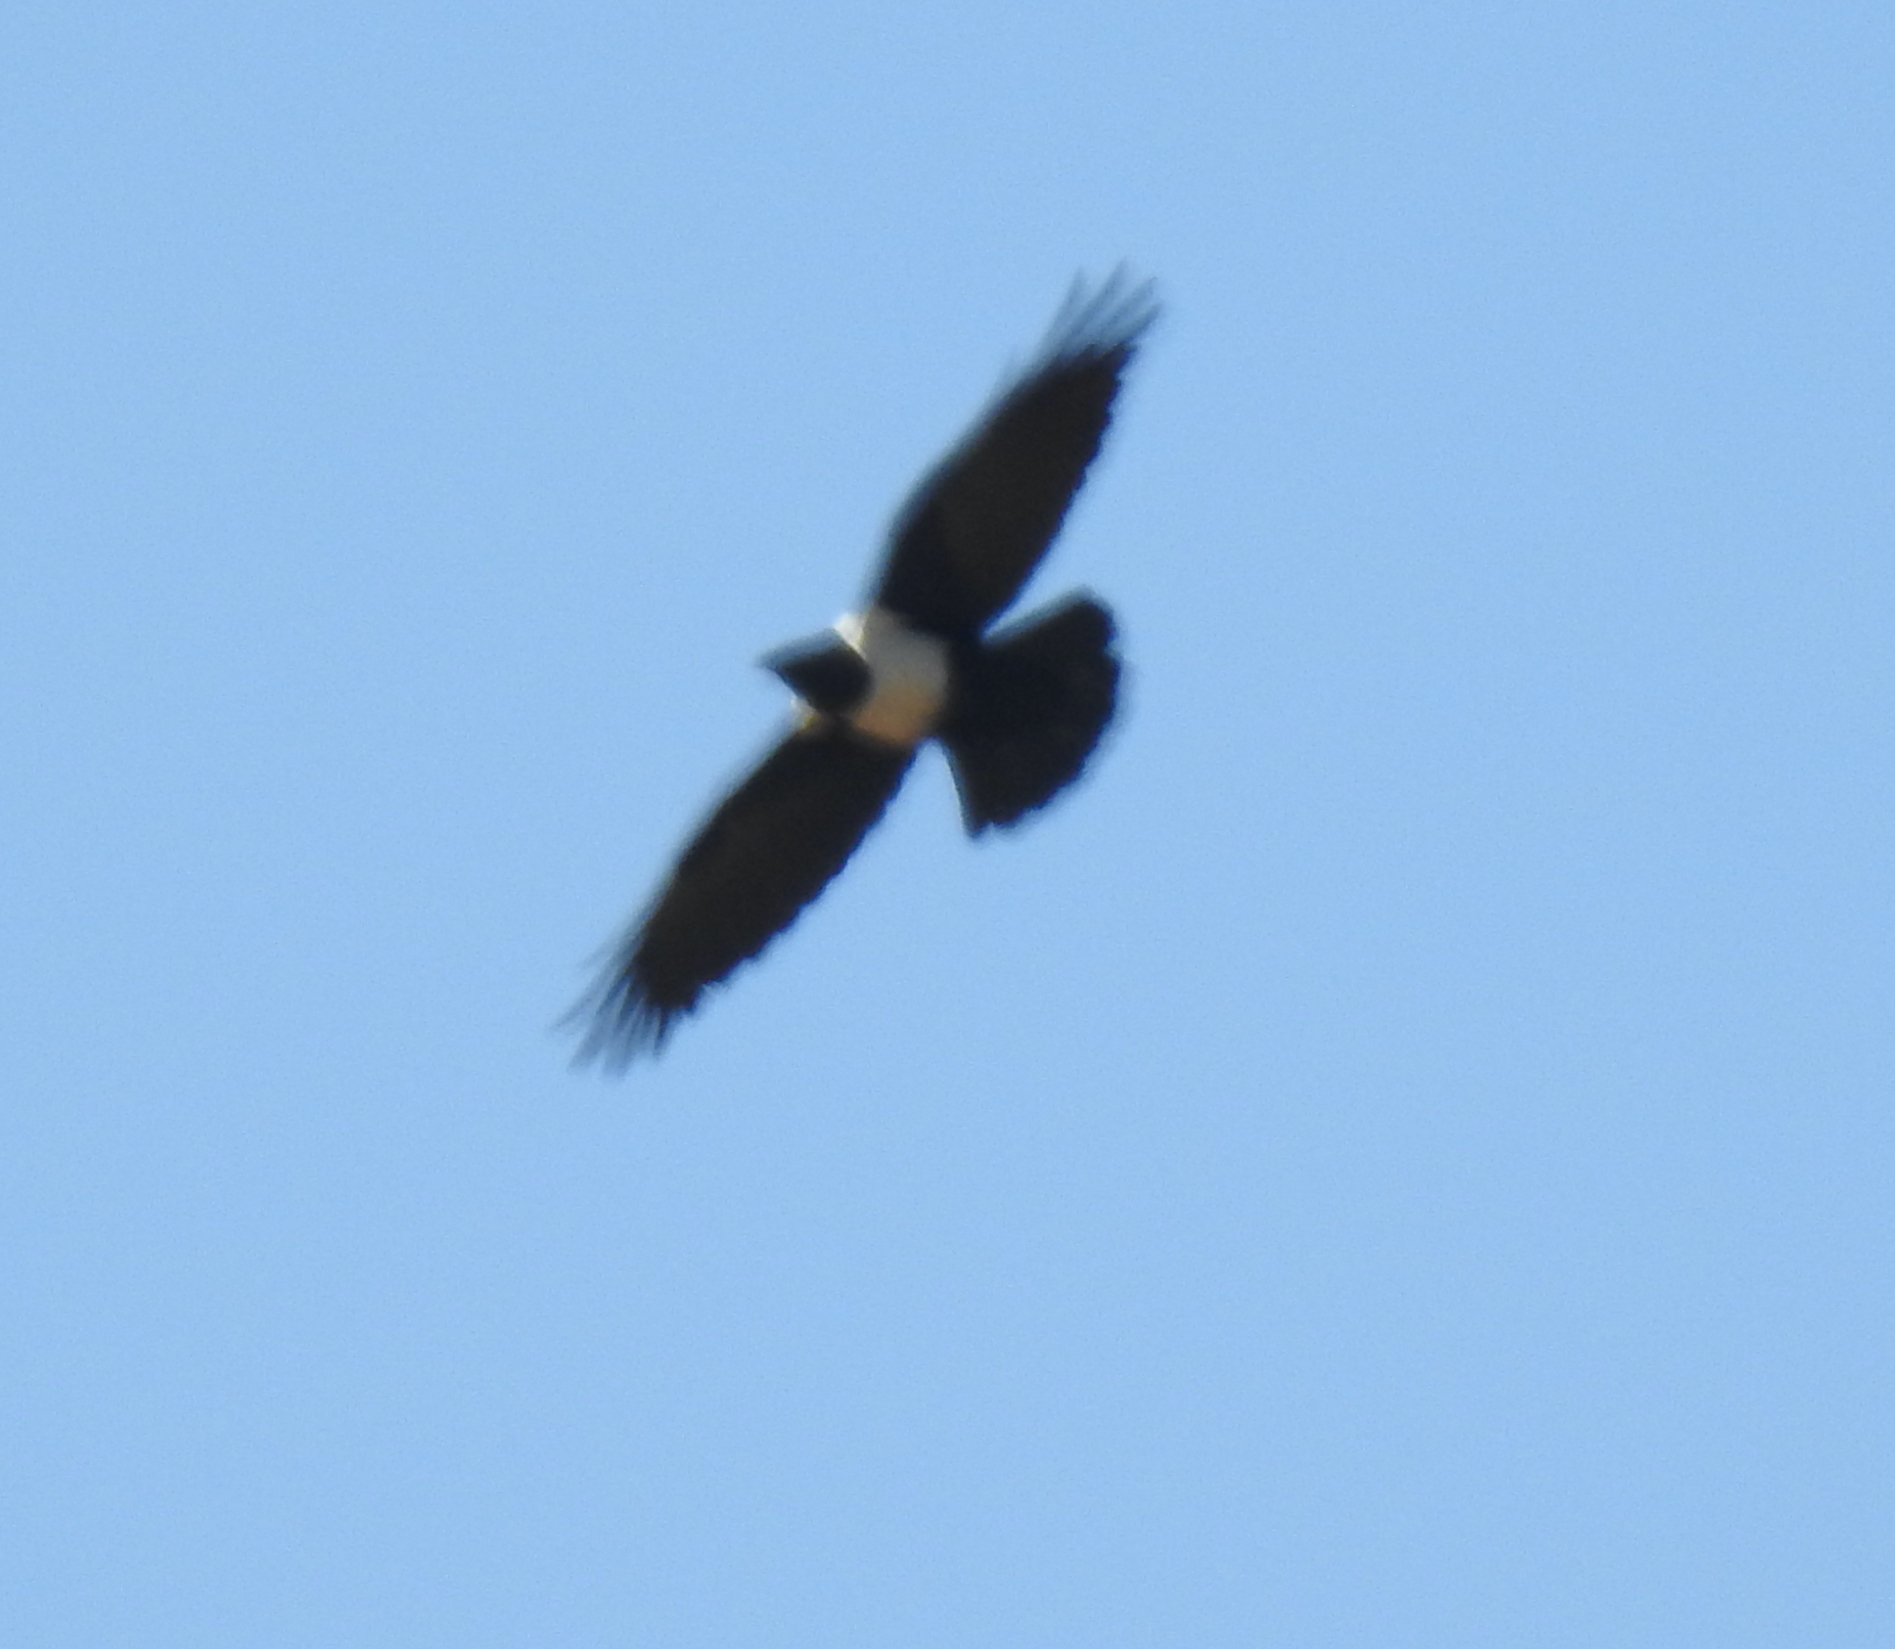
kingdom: Animalia
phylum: Chordata
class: Aves
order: Passeriformes
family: Corvidae
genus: Corvus
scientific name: Corvus albus
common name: Pied crow
